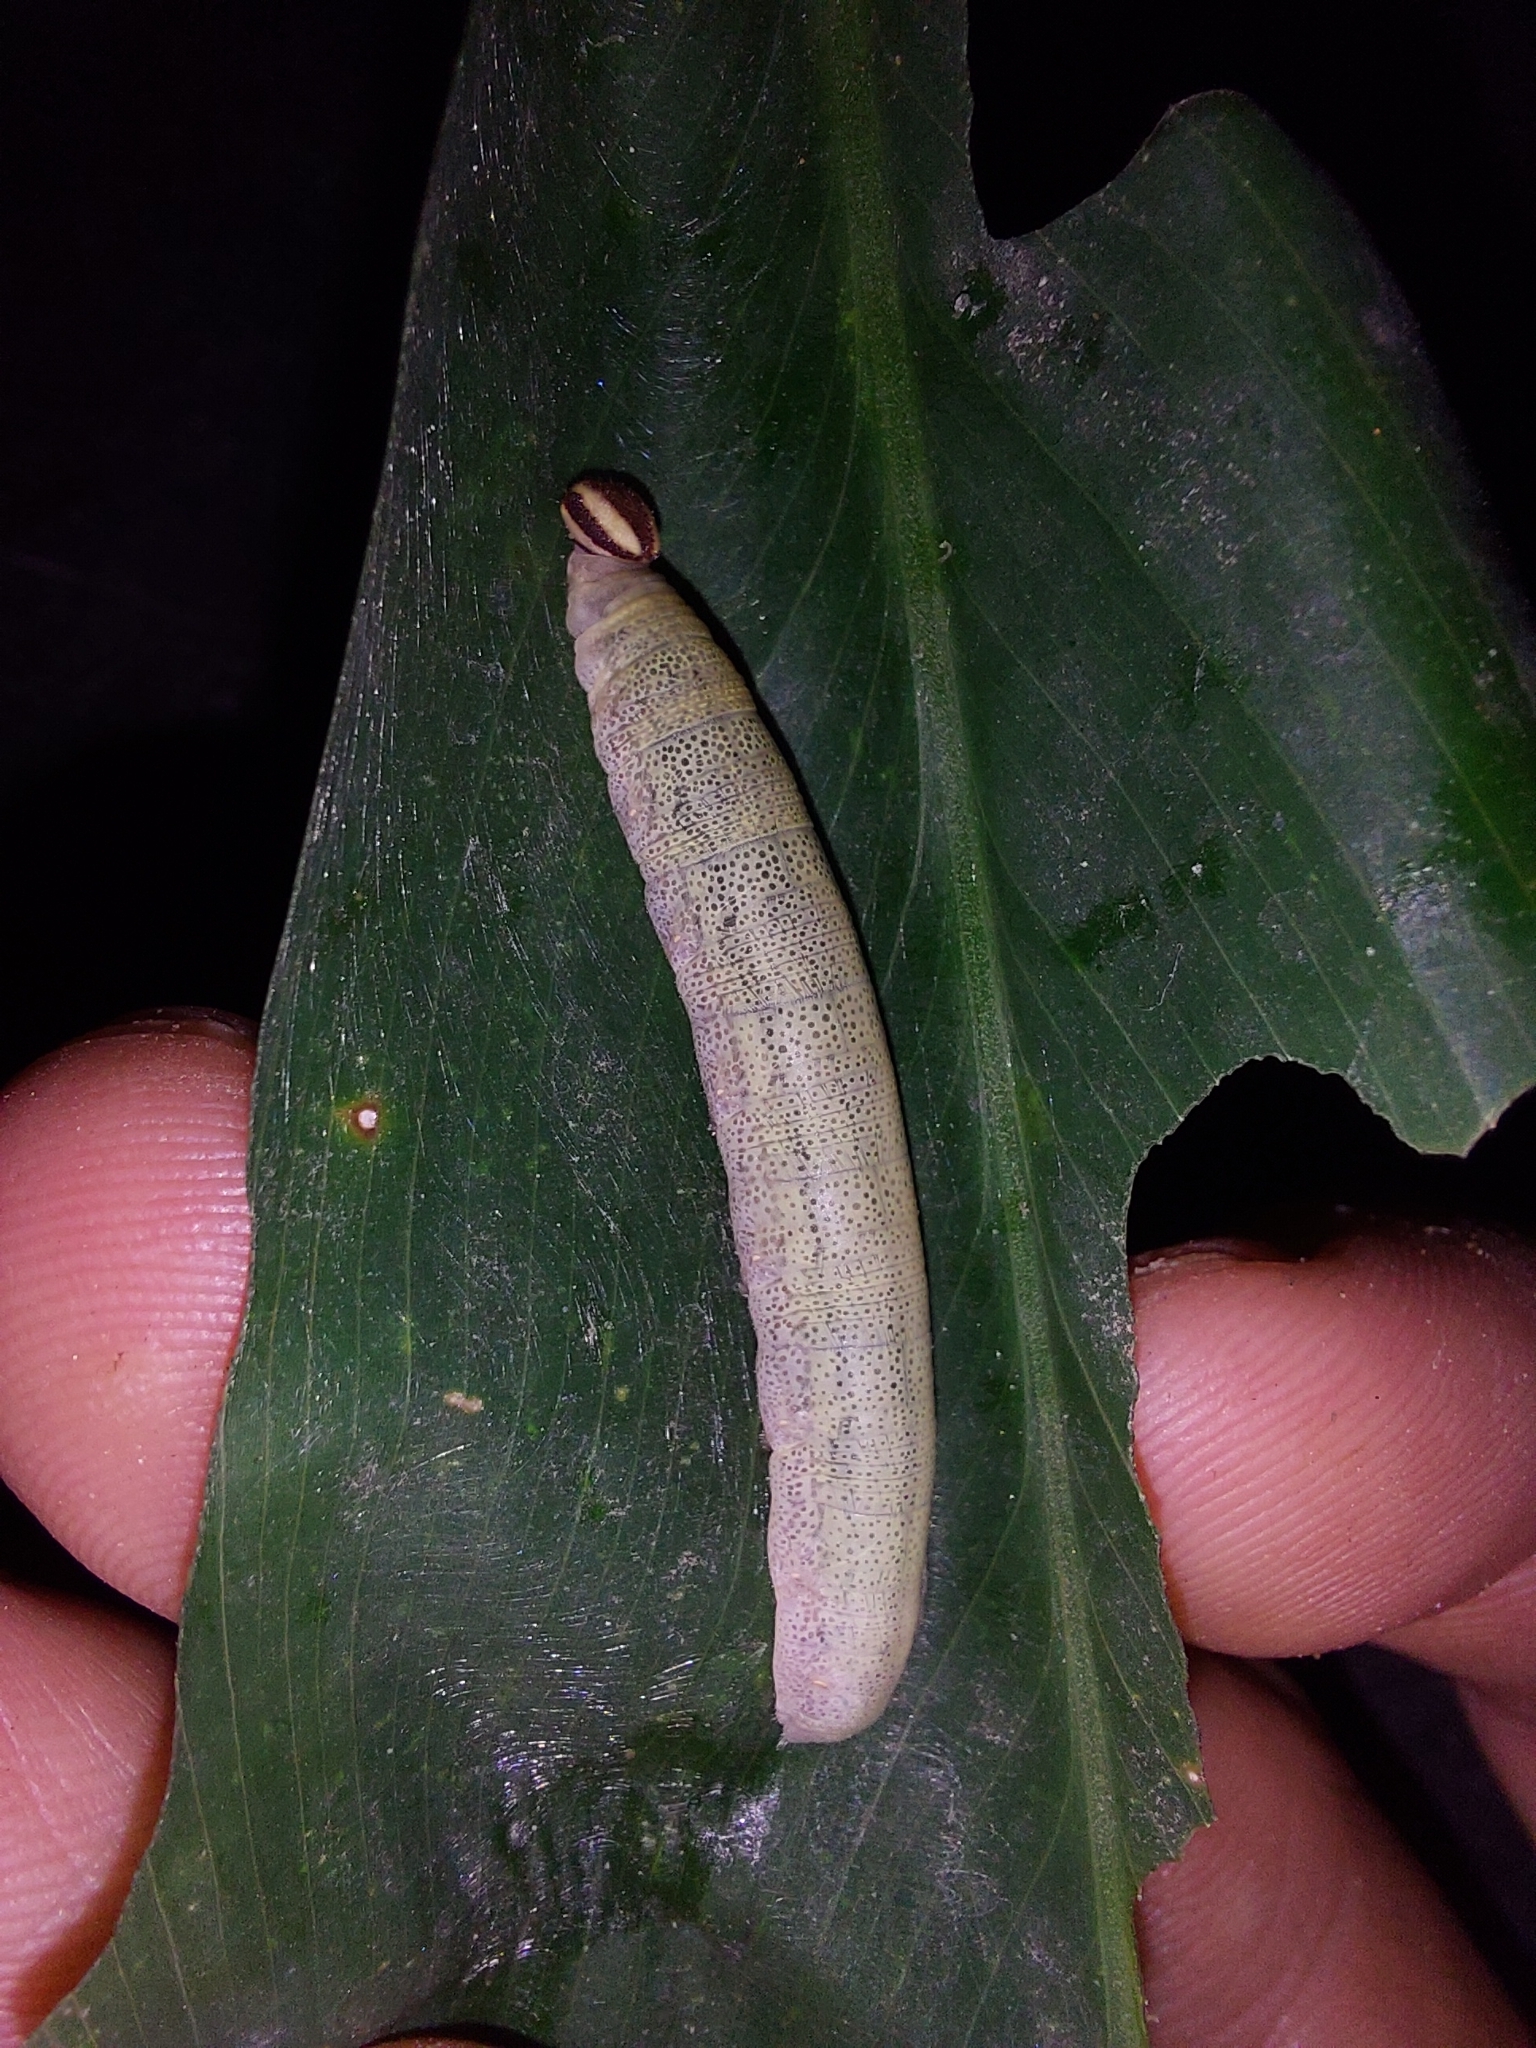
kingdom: Animalia
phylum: Arthropoda
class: Insecta
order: Lepidoptera
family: Hesperiidae
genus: Quinta
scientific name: Quinta cannae
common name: Canna skipper
